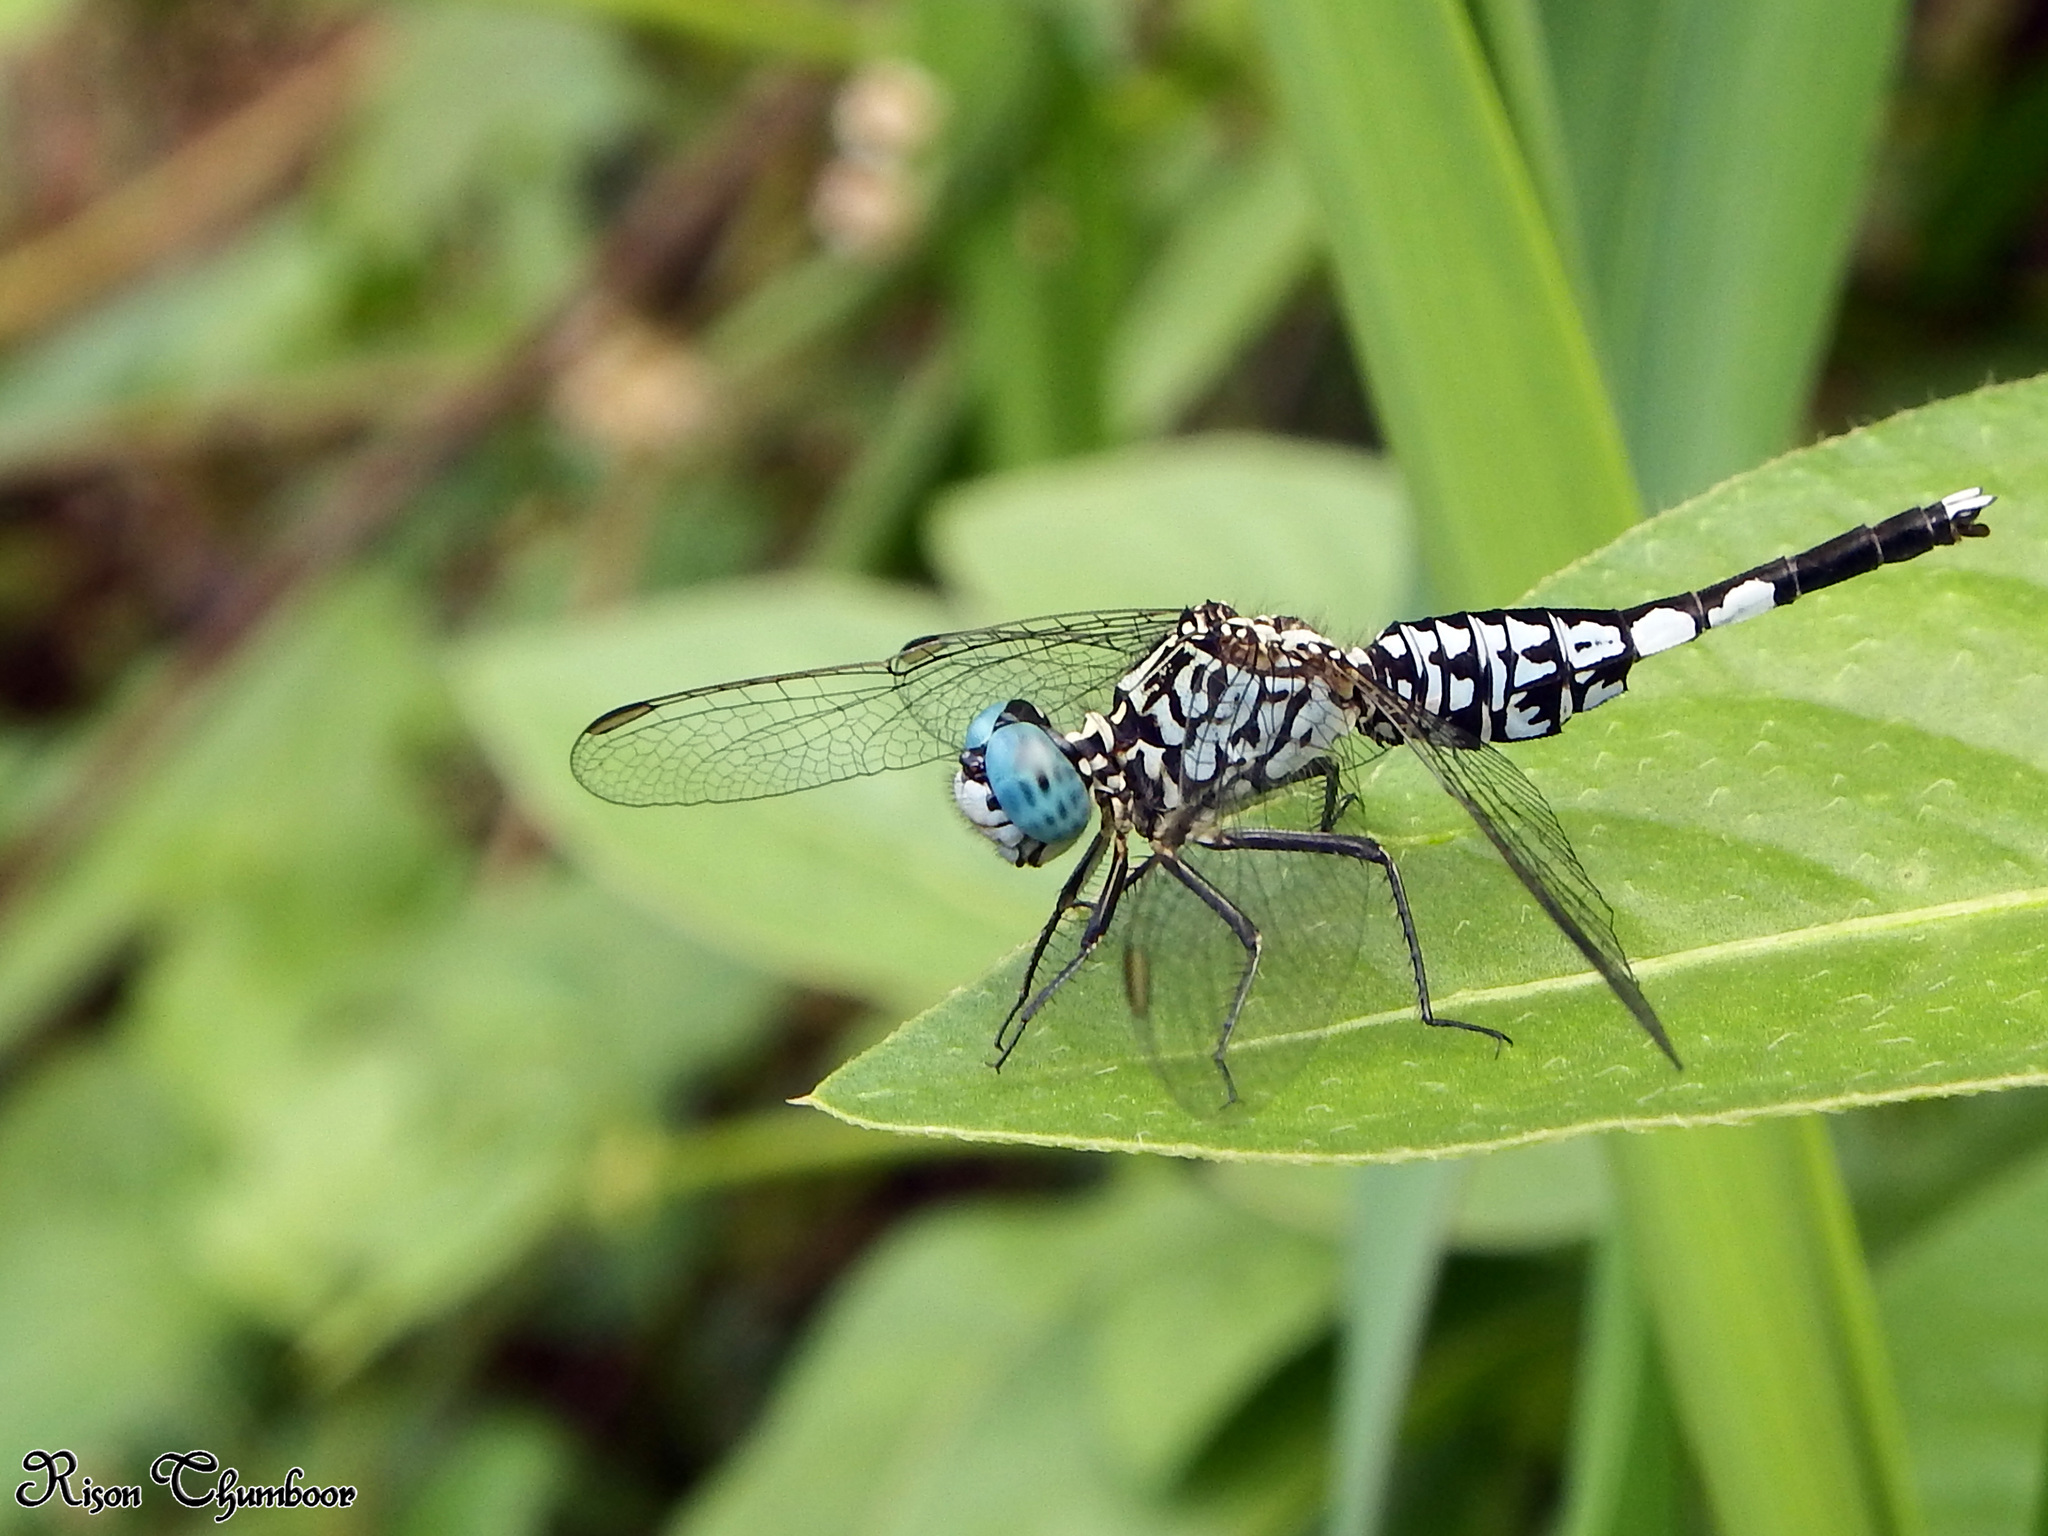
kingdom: Animalia
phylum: Arthropoda
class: Insecta
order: Odonata
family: Libellulidae
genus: Acisoma
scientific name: Acisoma panorpoides
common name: Asian pintail
